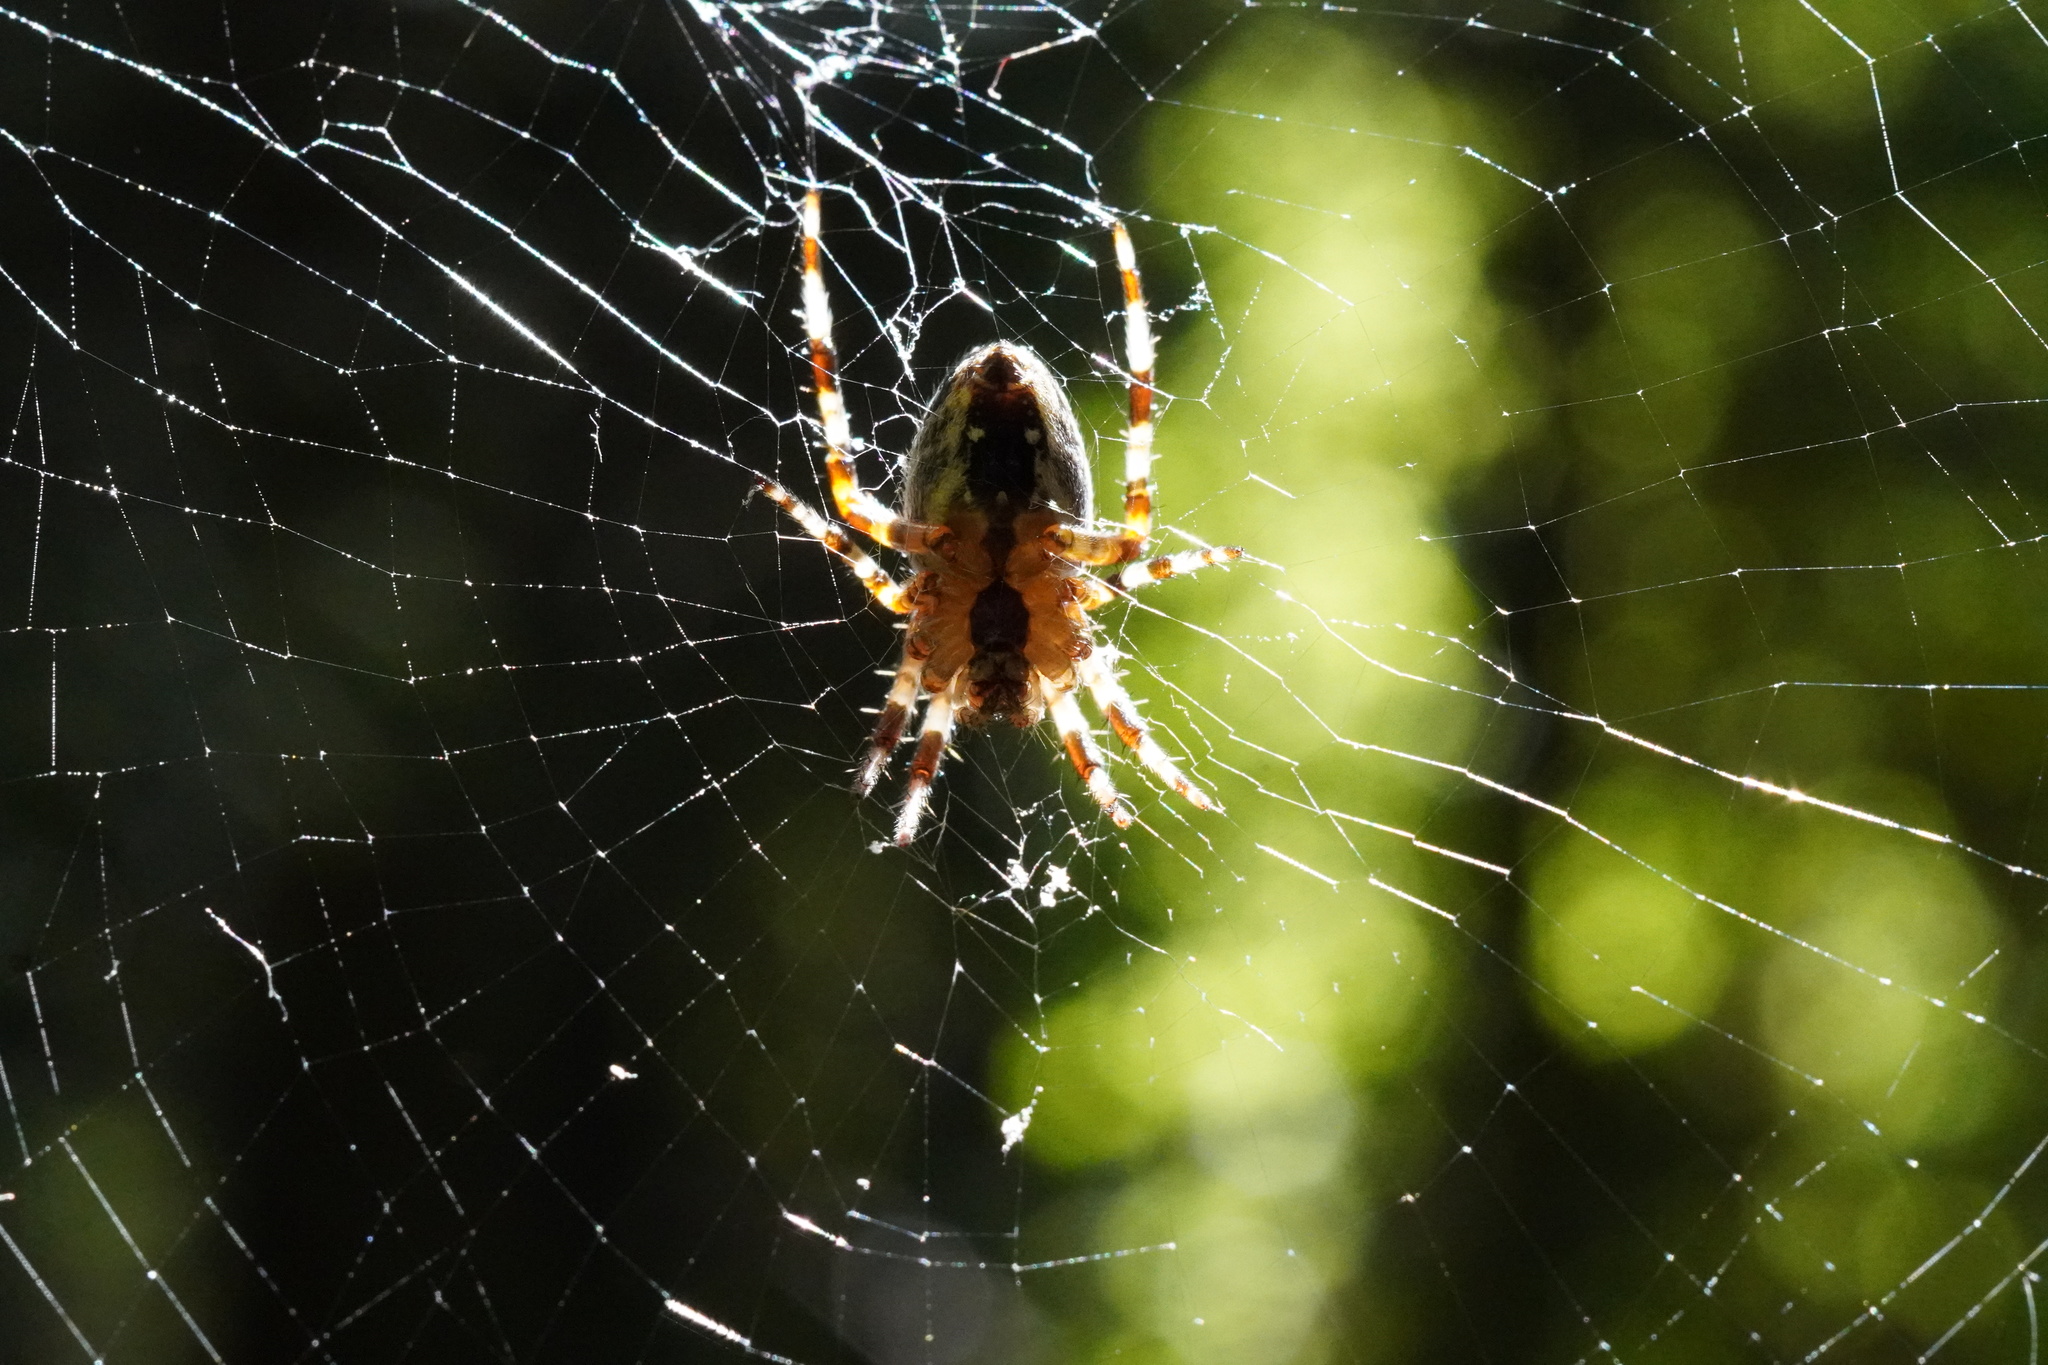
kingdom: Animalia
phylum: Arthropoda
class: Arachnida
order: Araneae
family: Araneidae
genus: Araneus
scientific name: Araneus nordmanni
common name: Nordmann's orbweaver
